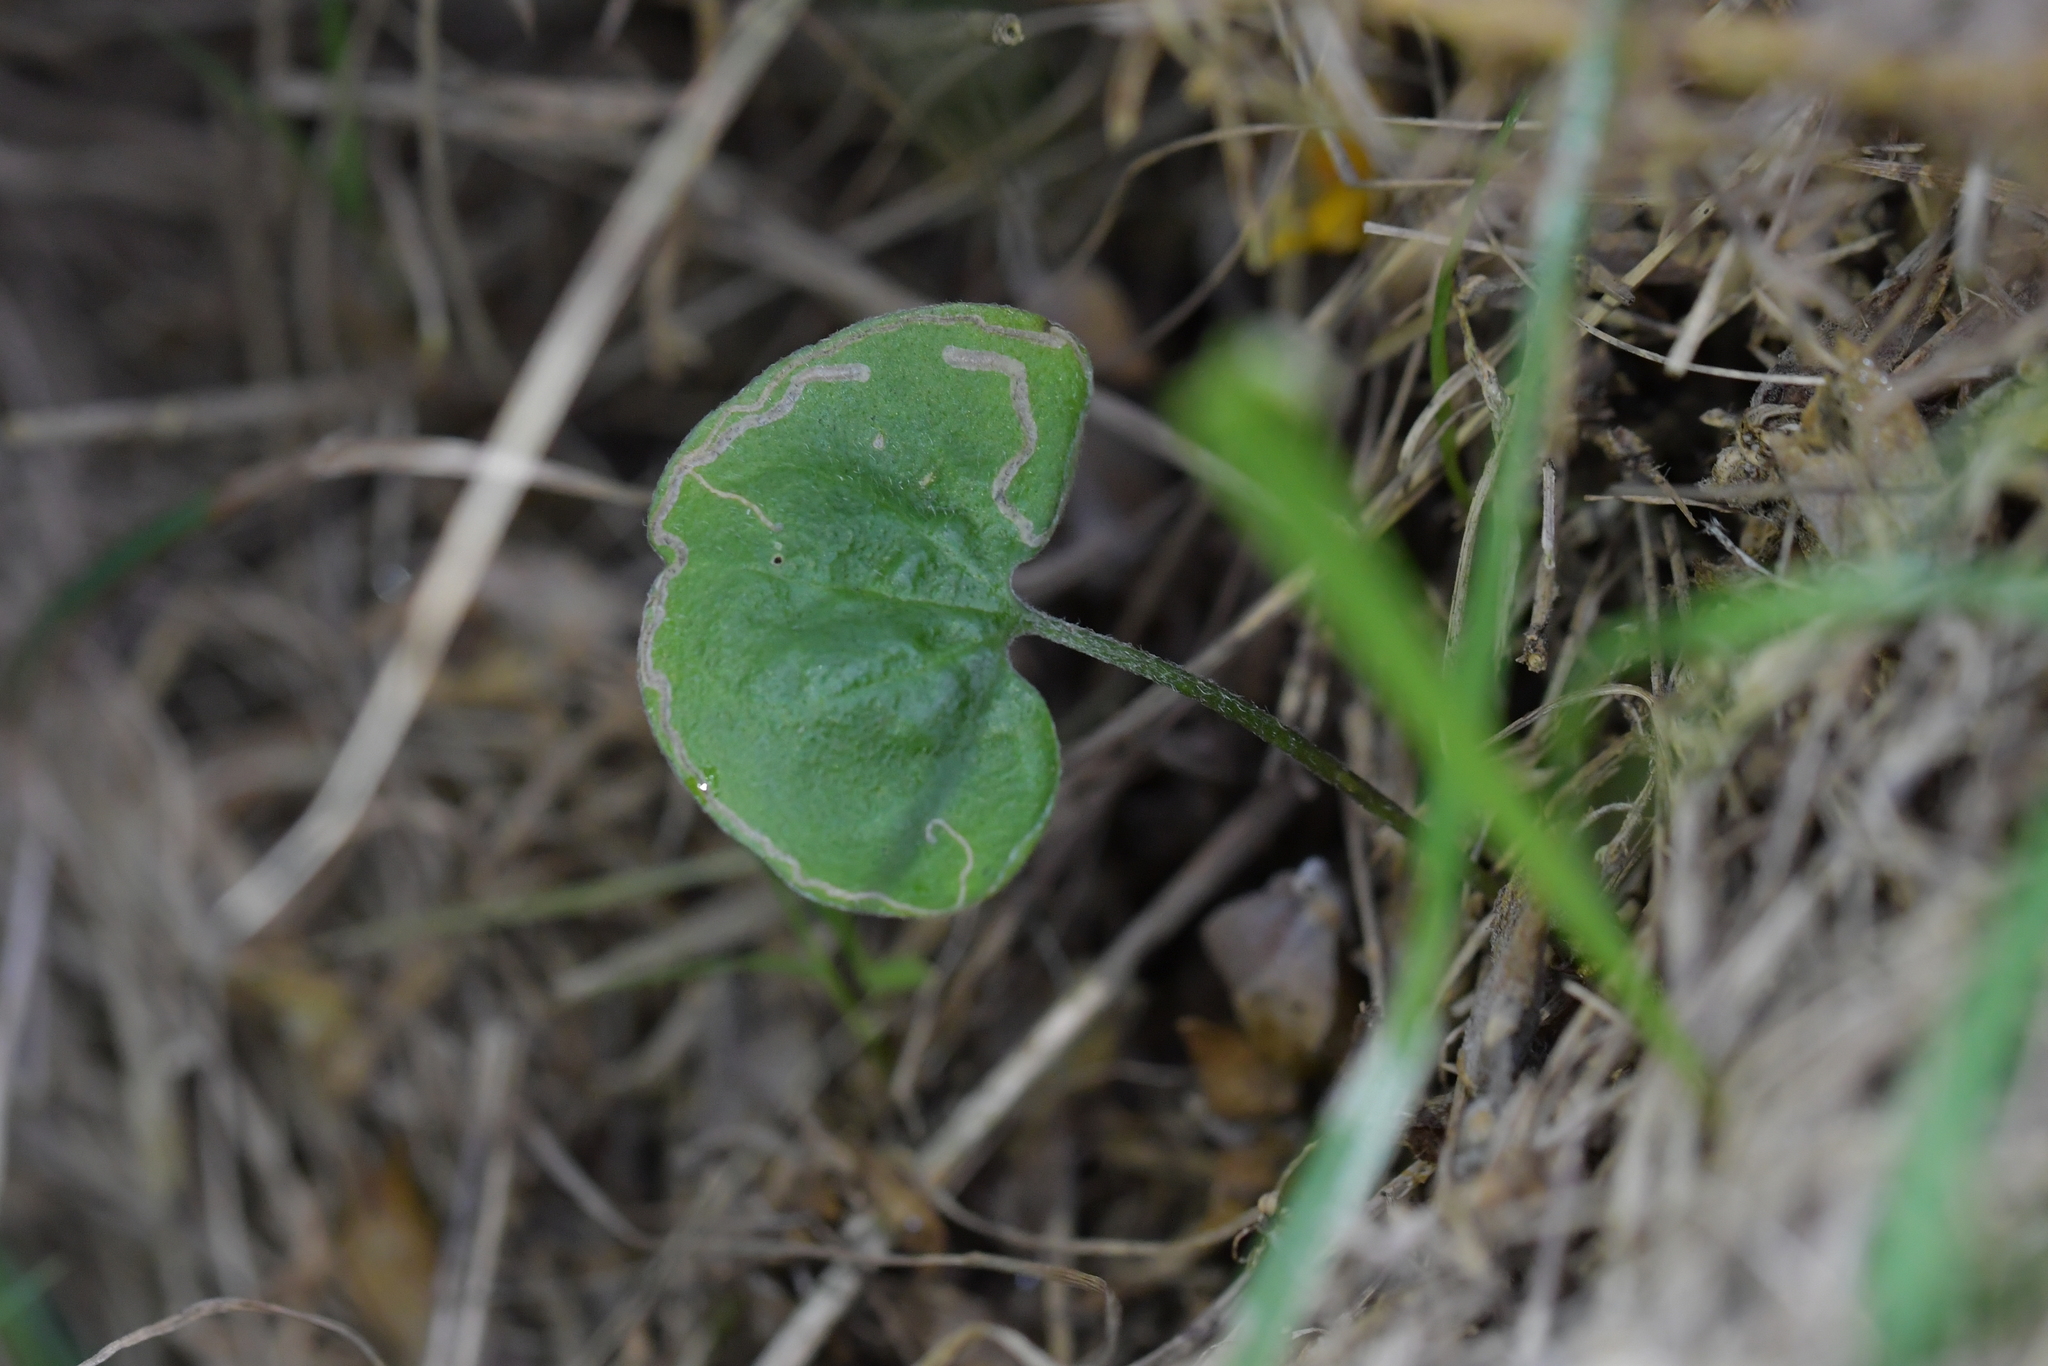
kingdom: Plantae
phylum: Tracheophyta
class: Magnoliopsida
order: Solanales
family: Convolvulaceae
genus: Dichondra
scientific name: Dichondra repens
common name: Kidneyweed
